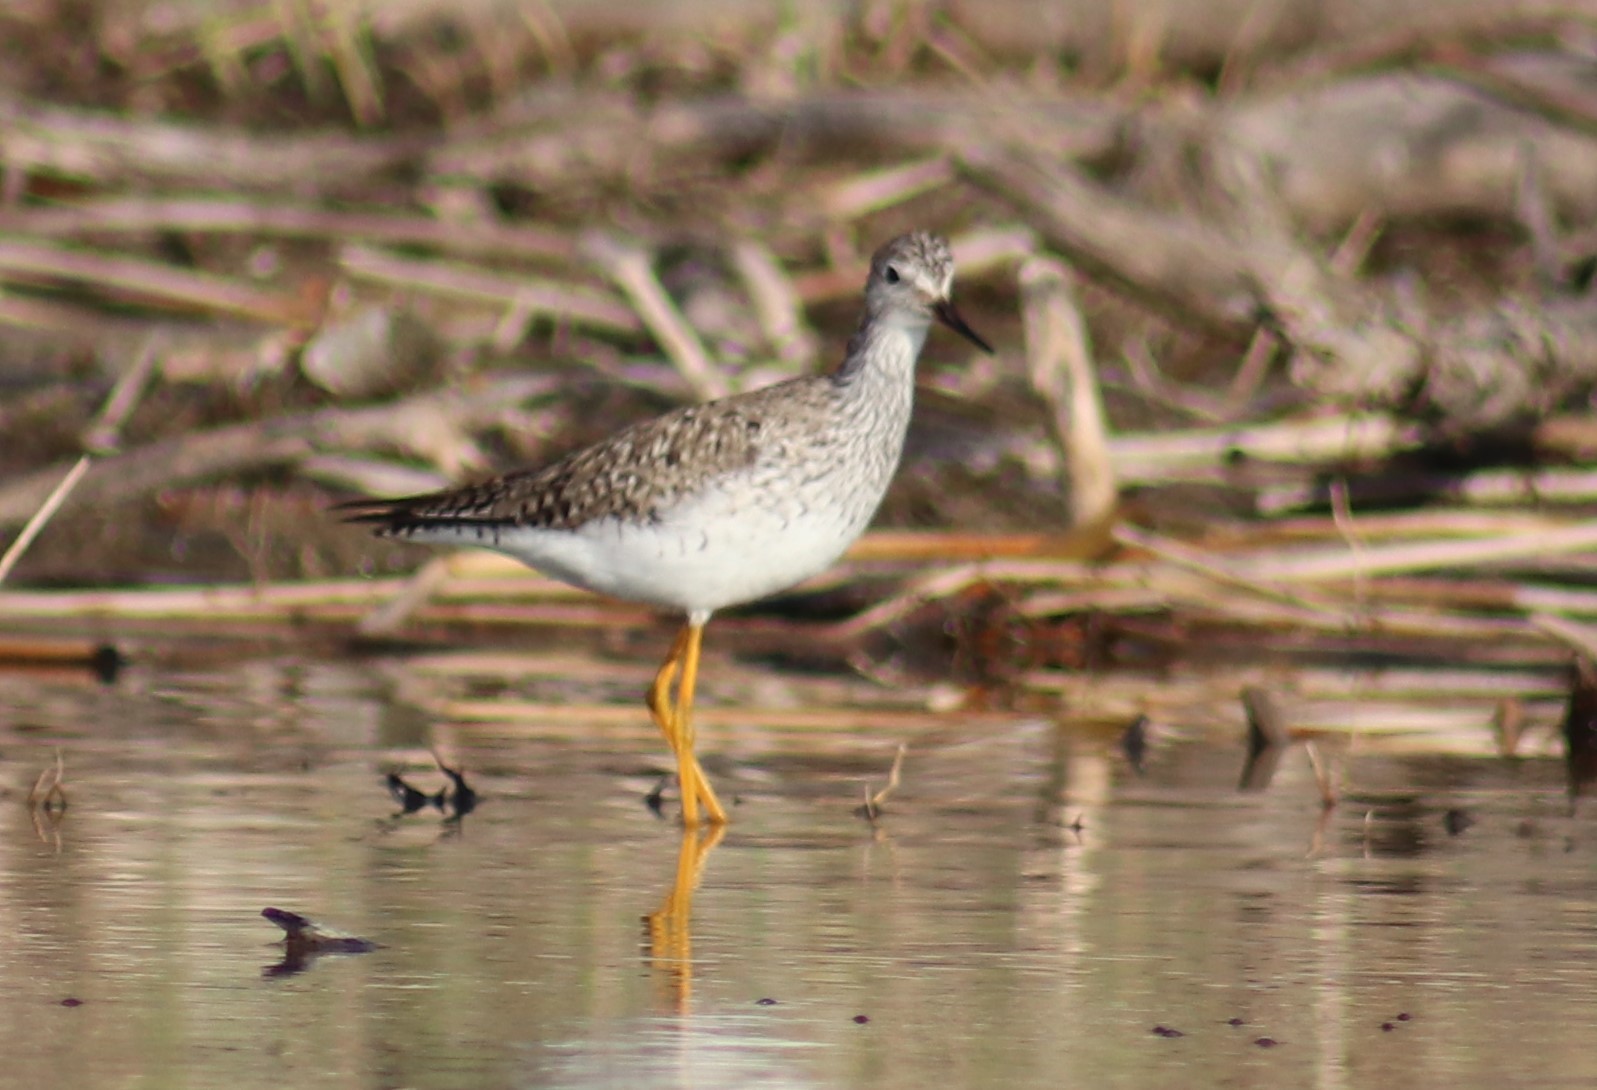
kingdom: Animalia
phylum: Chordata
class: Aves
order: Charadriiformes
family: Scolopacidae
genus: Tringa
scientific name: Tringa flavipes
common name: Lesser yellowlegs
